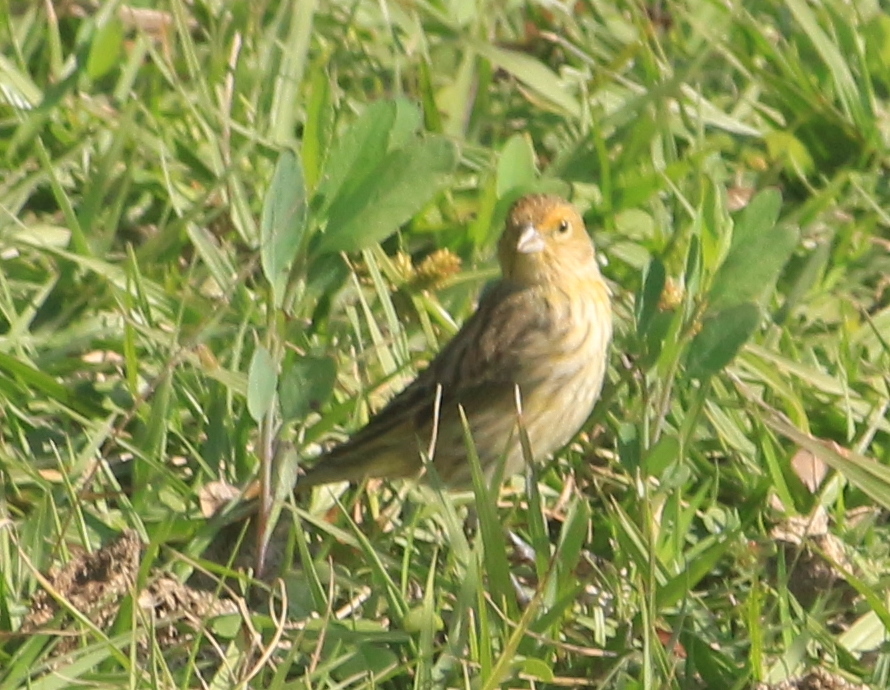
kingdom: Animalia
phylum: Chordata
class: Aves
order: Passeriformes
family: Thraupidae
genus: Sicalis
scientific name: Sicalis flaveola
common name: Saffron finch
